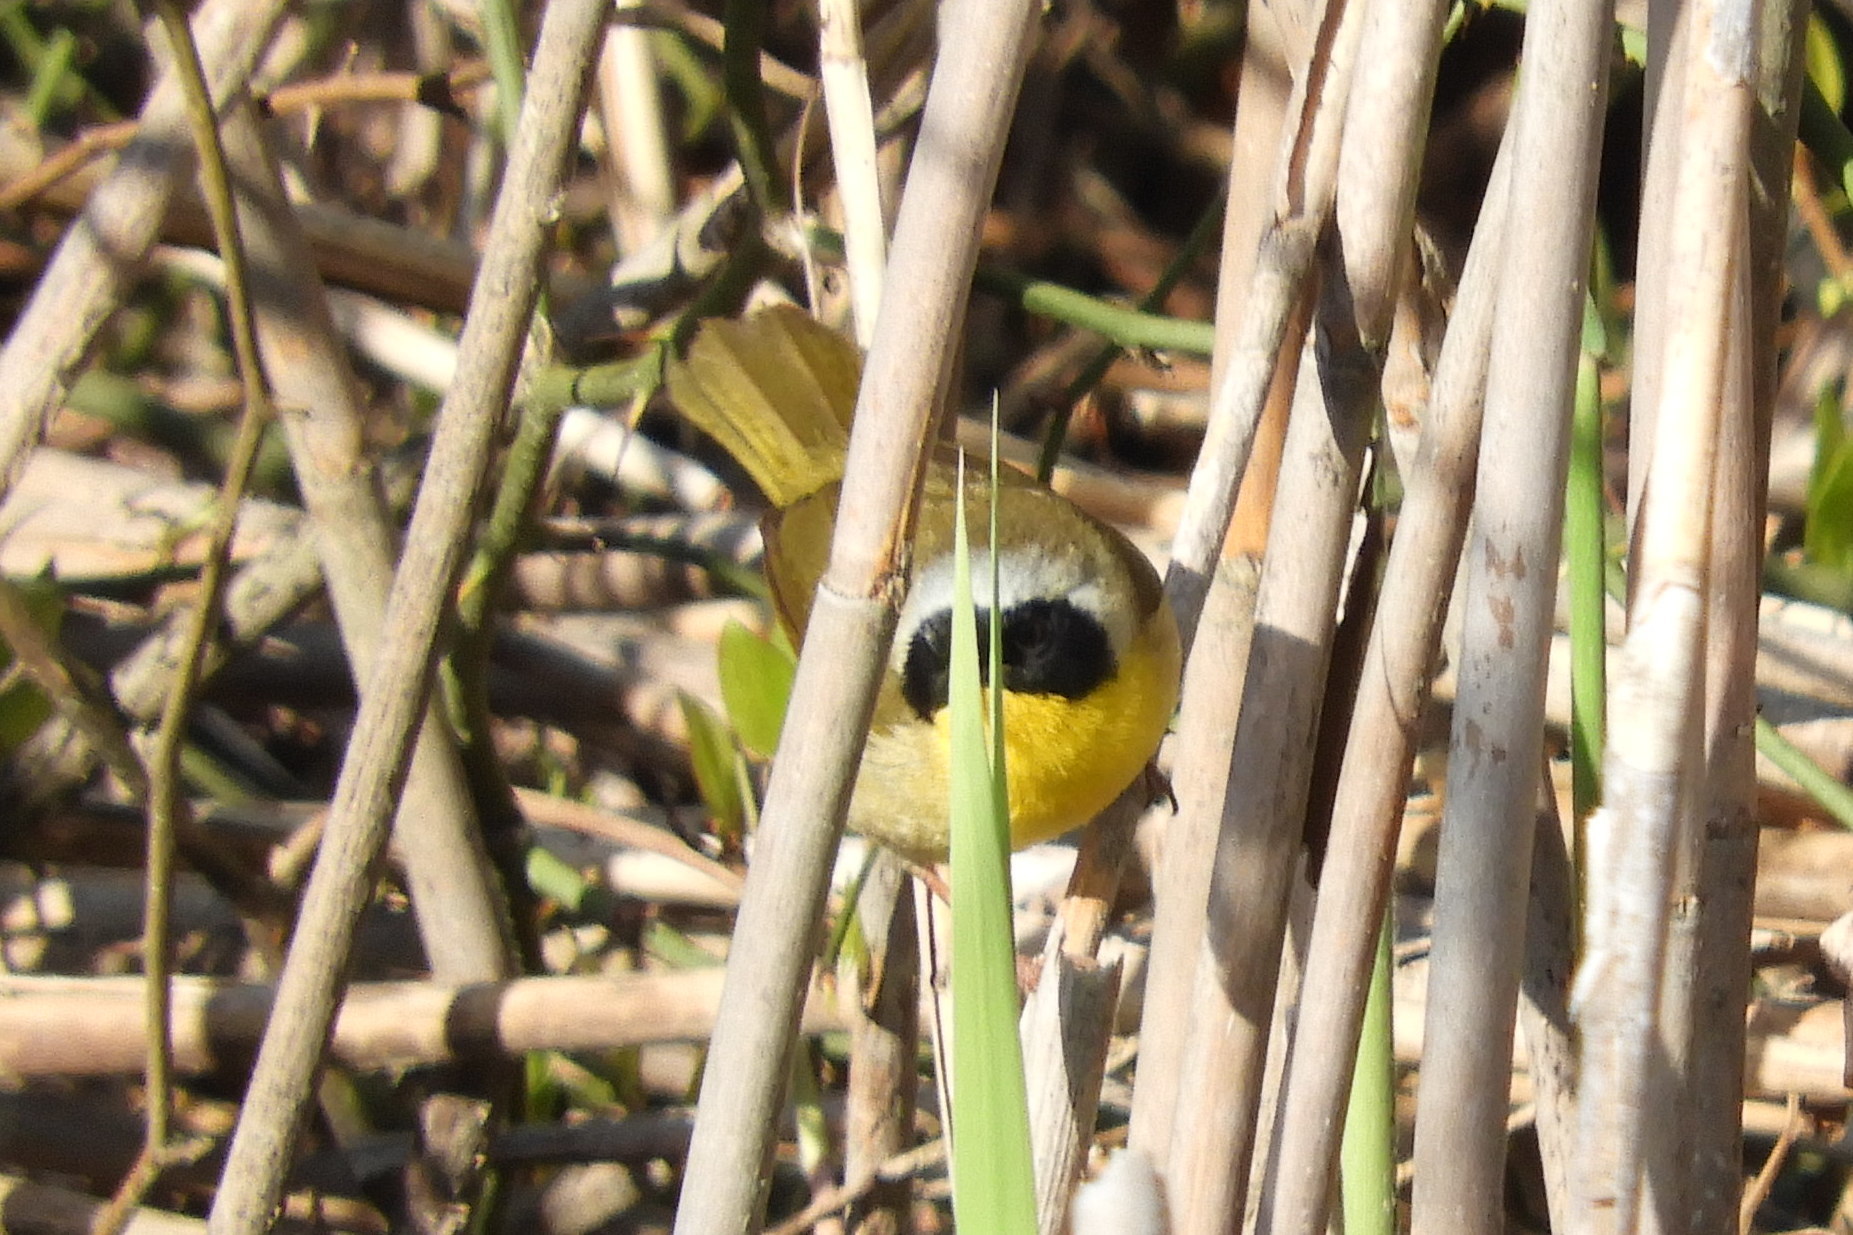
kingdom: Animalia
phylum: Chordata
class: Aves
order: Passeriformes
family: Parulidae
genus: Geothlypis
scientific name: Geothlypis trichas
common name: Common yellowthroat
